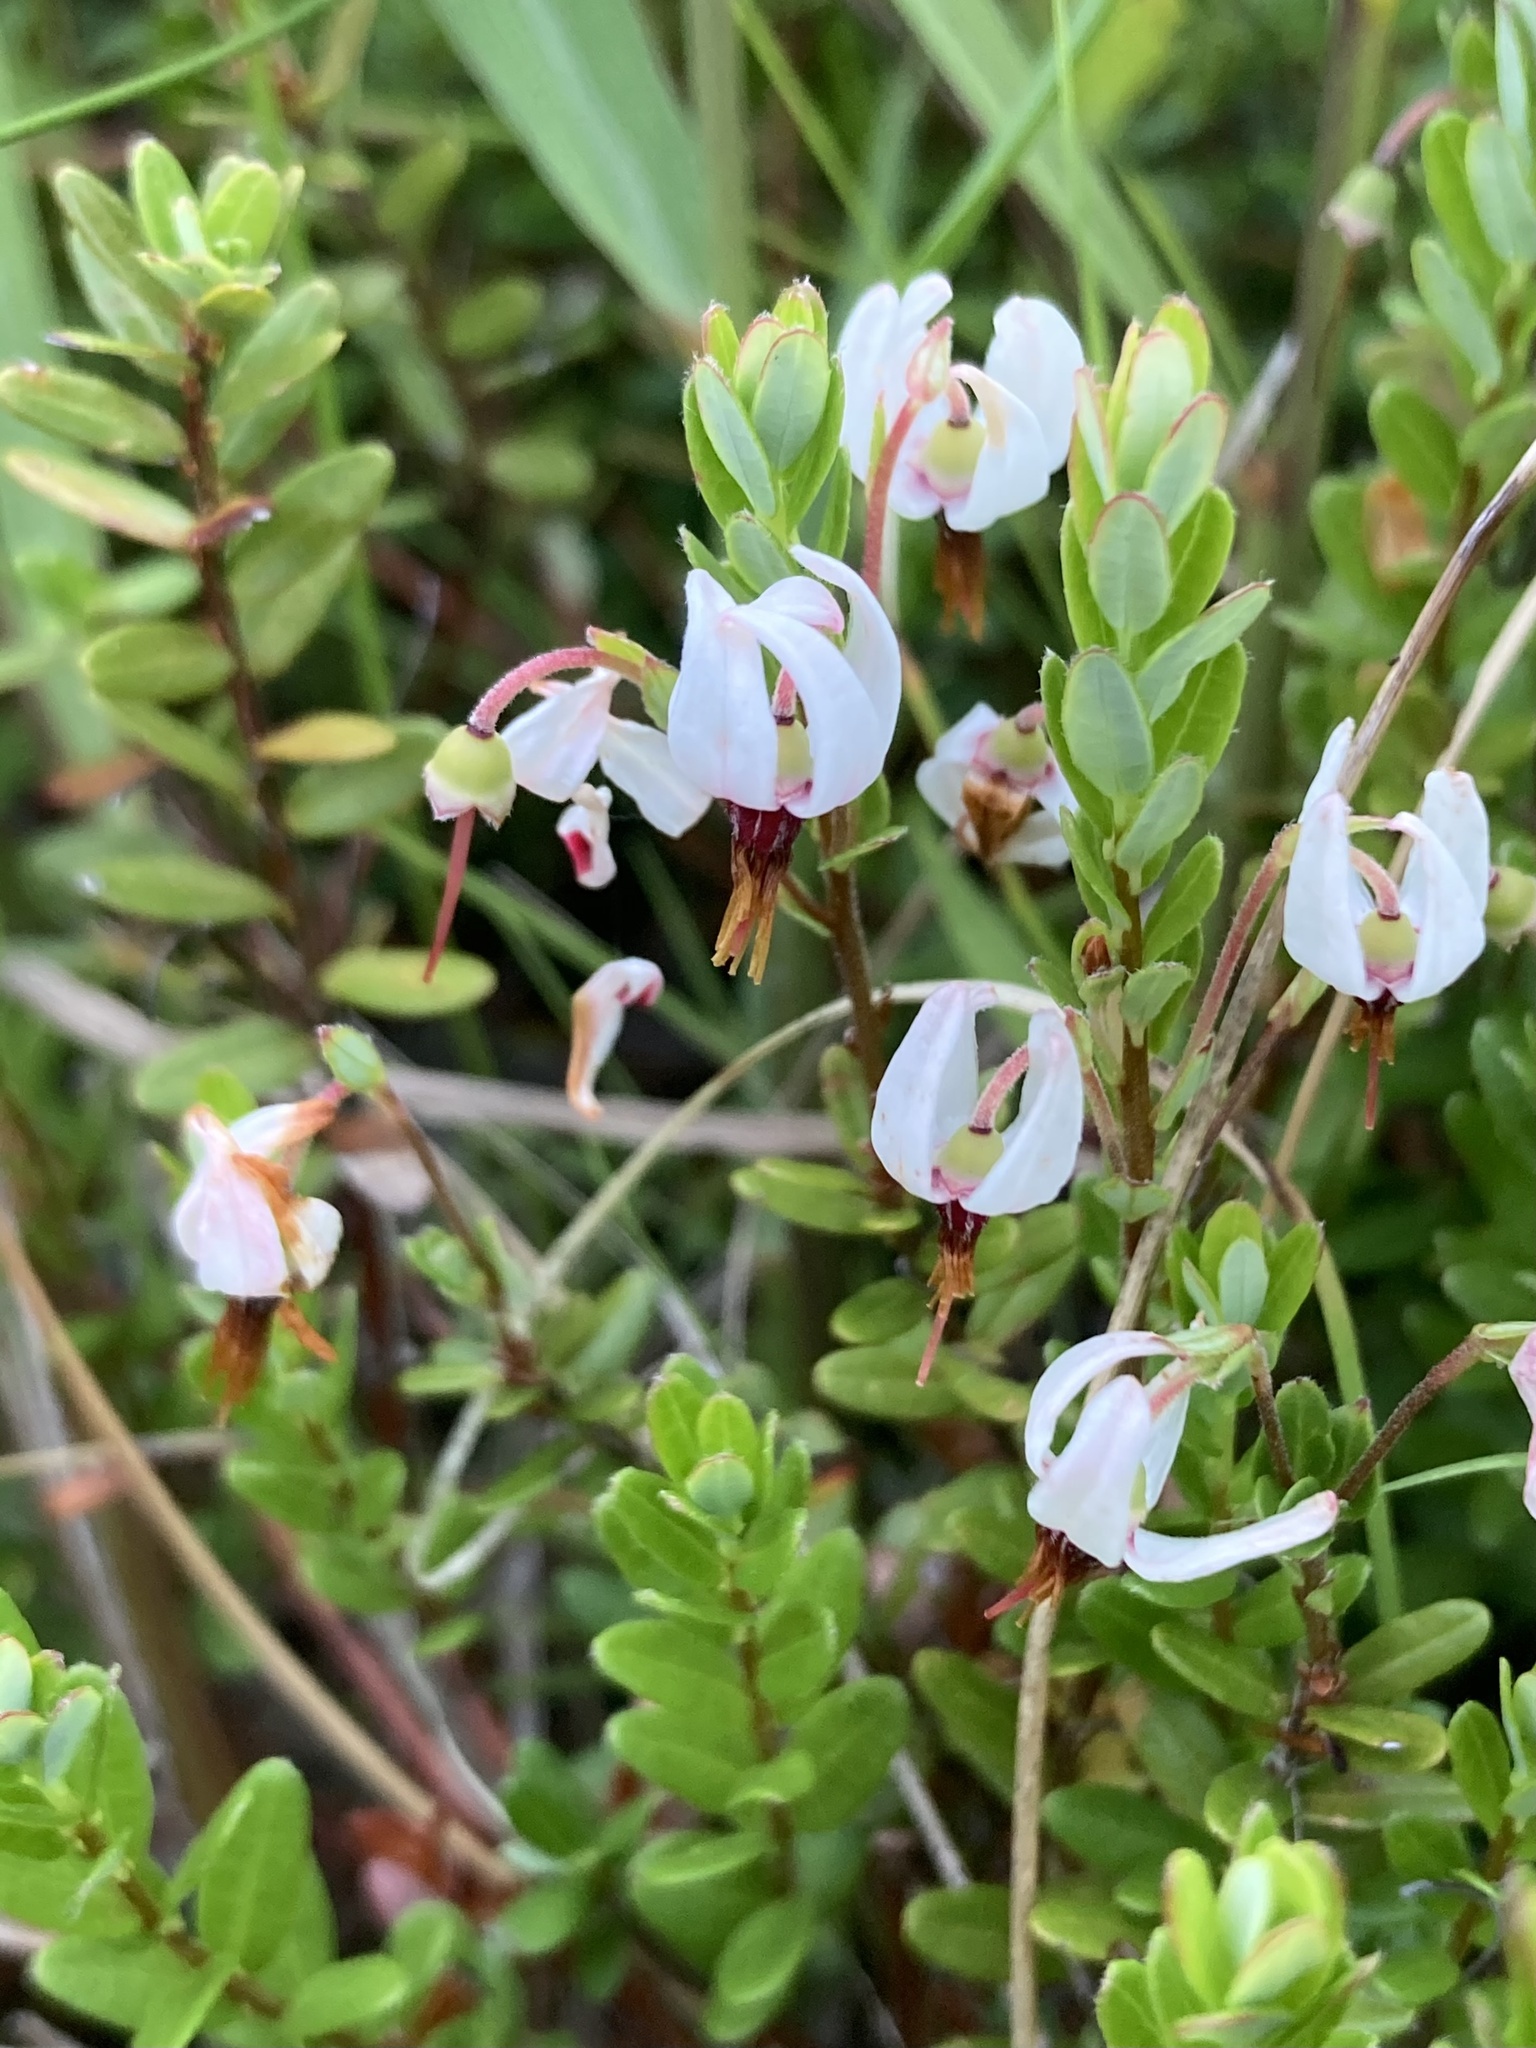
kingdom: Plantae
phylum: Tracheophyta
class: Magnoliopsida
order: Ericales
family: Ericaceae
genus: Vaccinium
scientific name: Vaccinium macrocarpon
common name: American cranberry
